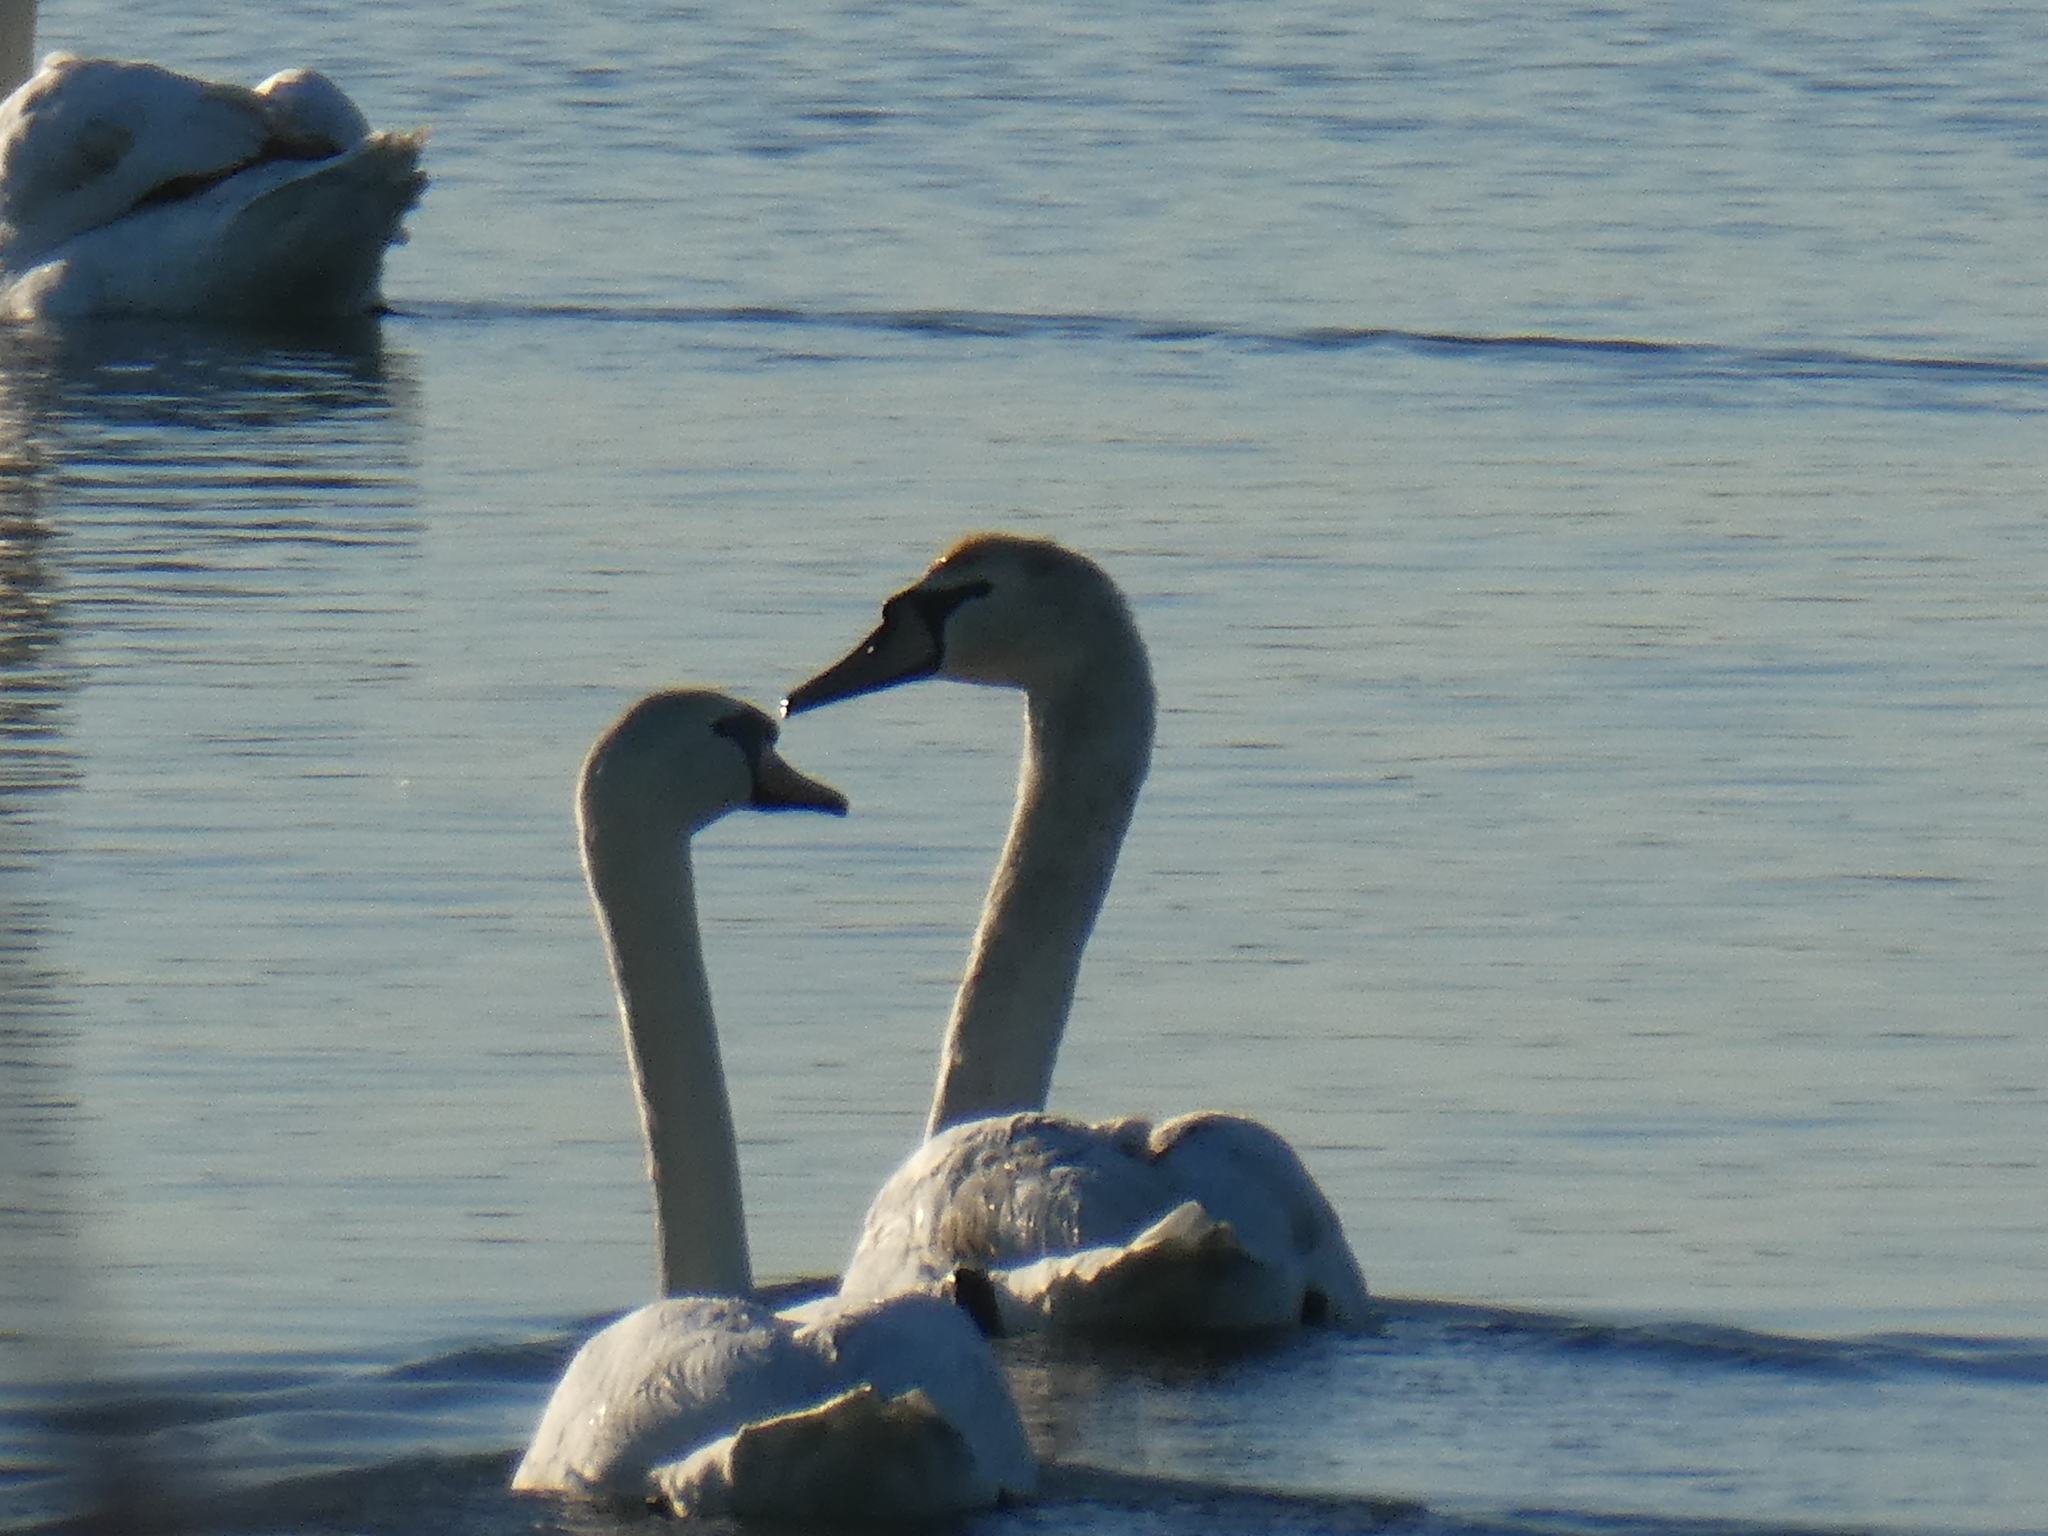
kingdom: Animalia
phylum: Chordata
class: Aves
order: Anseriformes
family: Anatidae
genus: Cygnus
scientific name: Cygnus olor
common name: Mute swan
